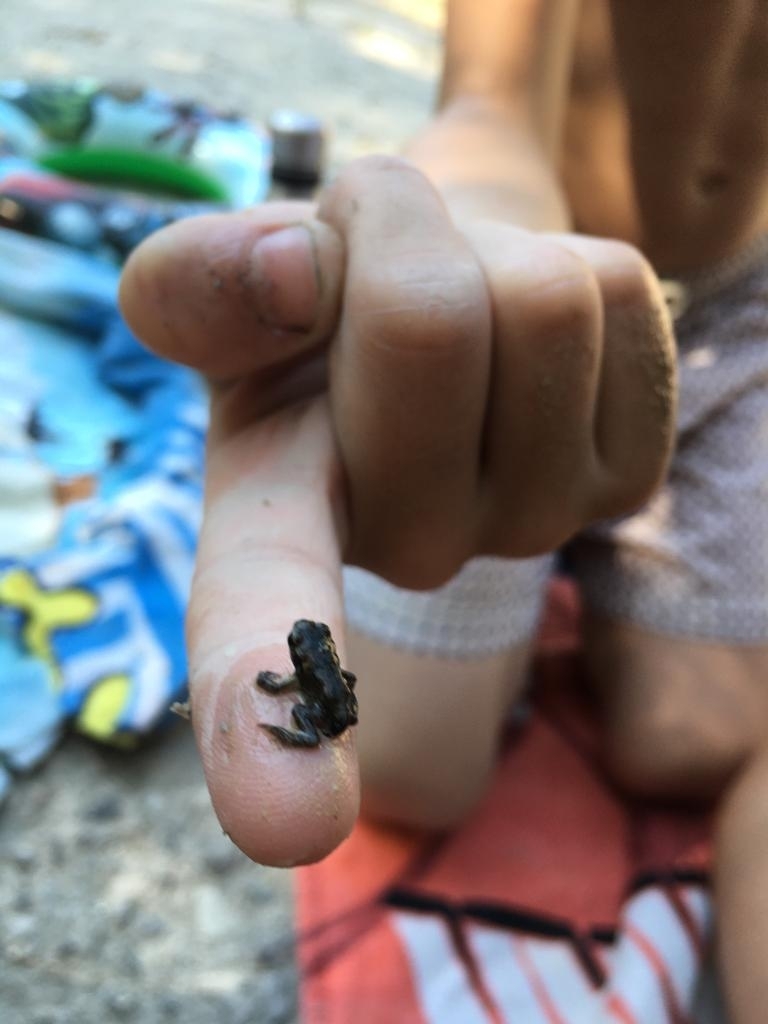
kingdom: Animalia
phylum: Chordata
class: Amphibia
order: Anura
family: Bufonidae
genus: Bufo
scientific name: Bufo bufo
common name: Common toad
